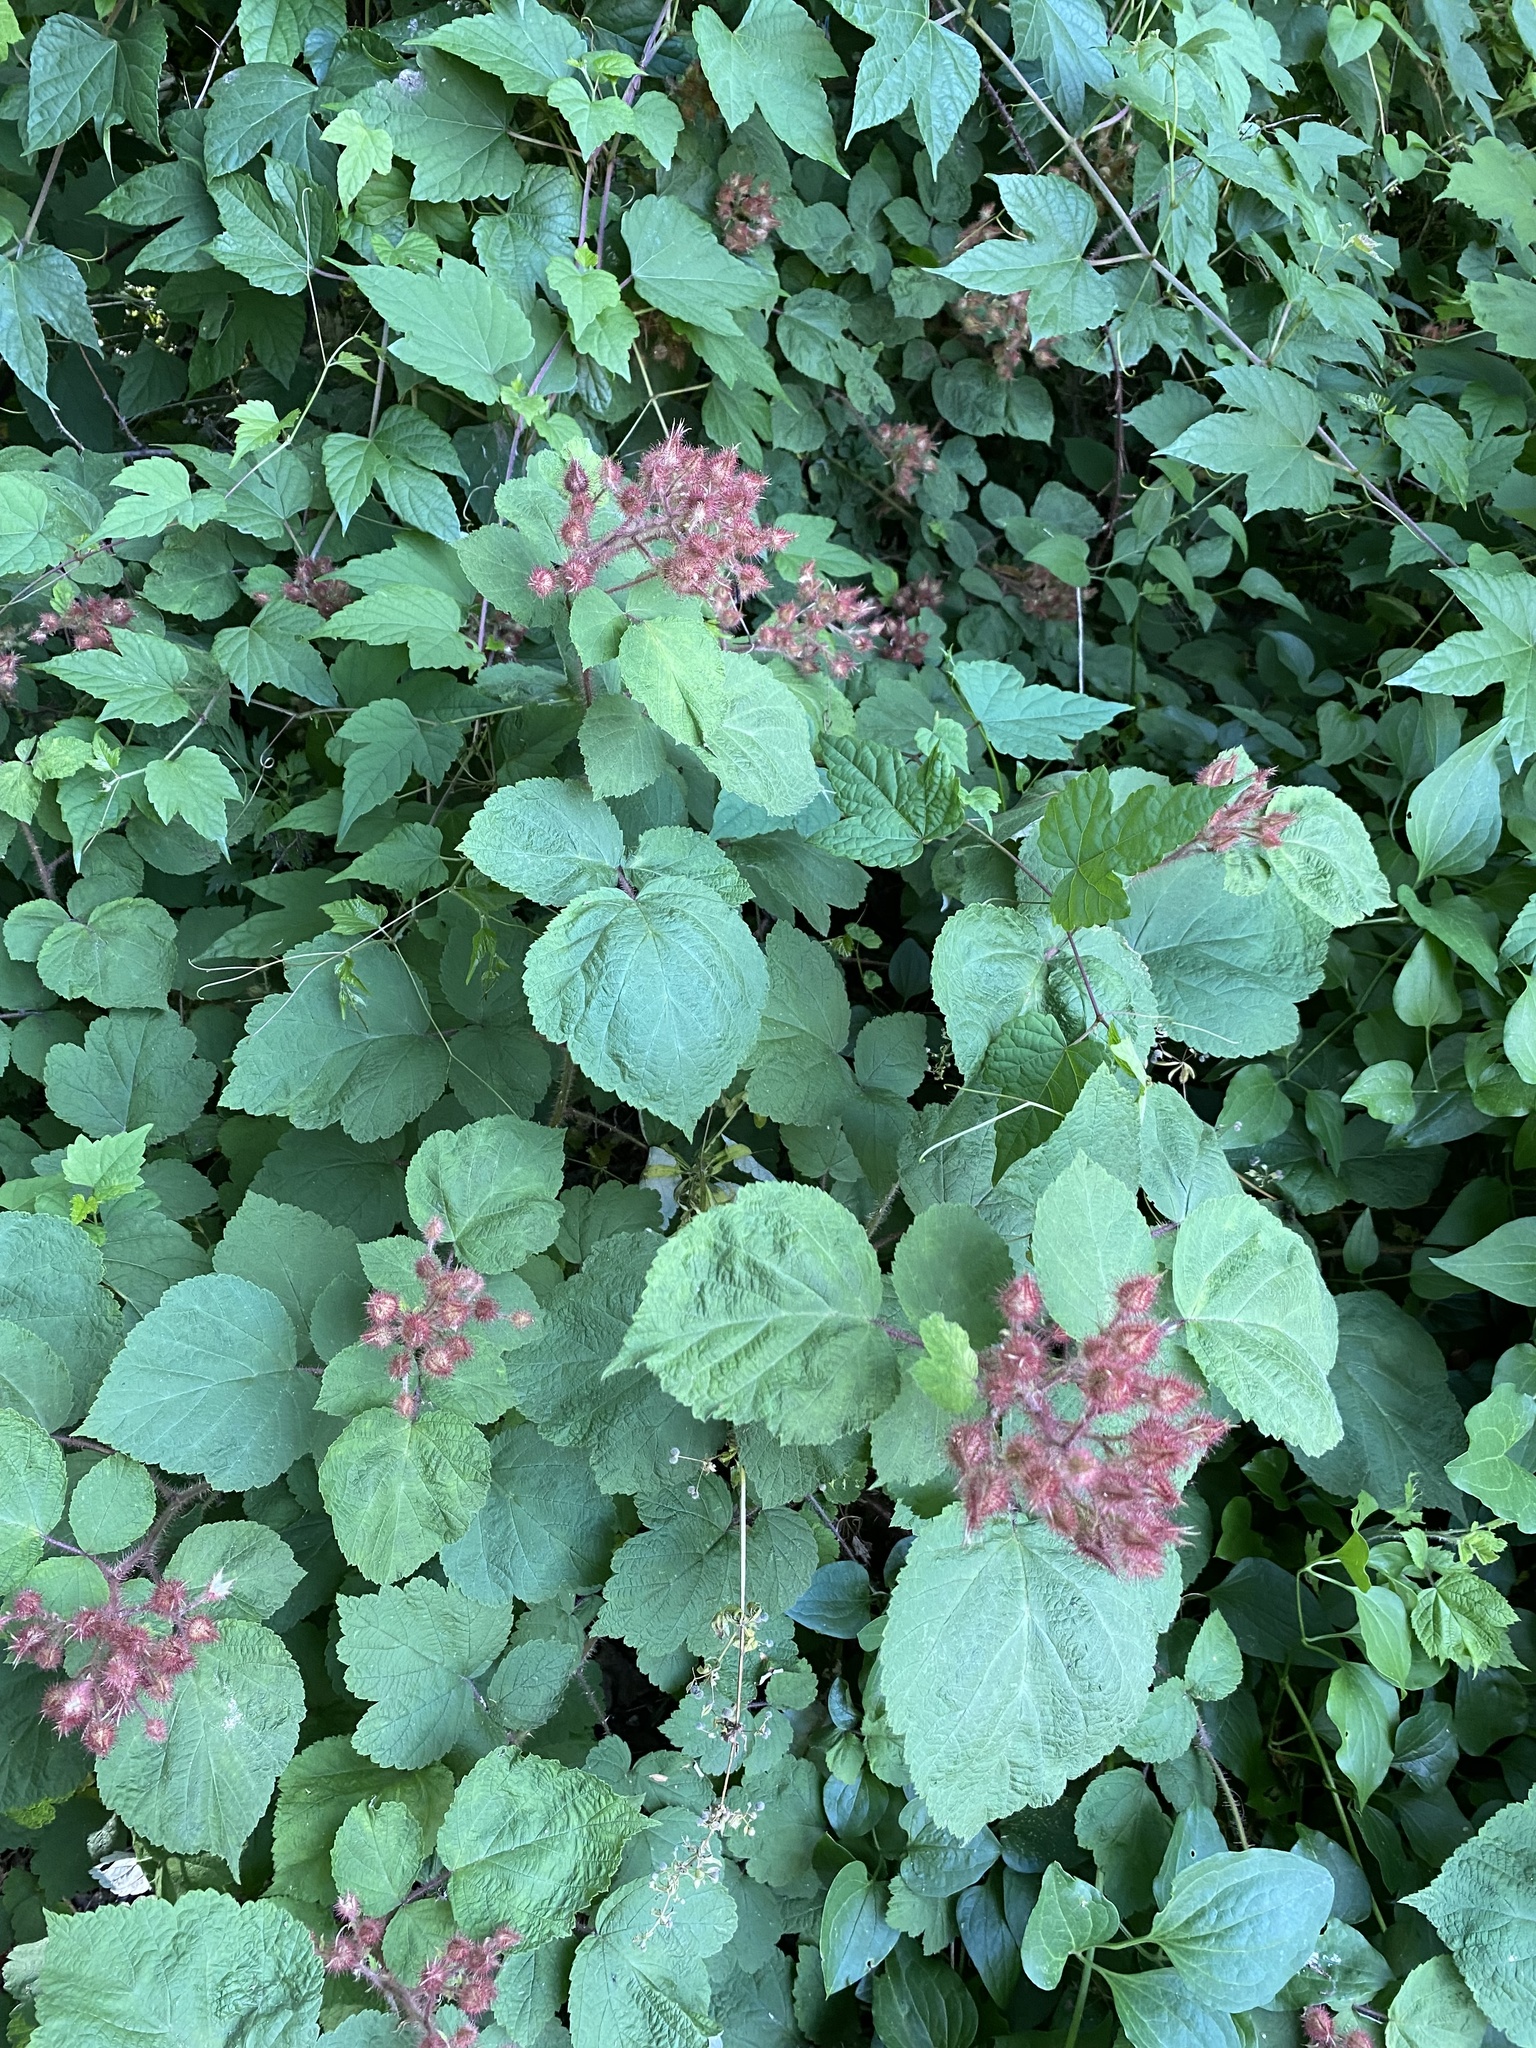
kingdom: Plantae
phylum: Tracheophyta
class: Magnoliopsida
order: Rosales
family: Rosaceae
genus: Rubus
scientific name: Rubus phoenicolasius
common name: Japanese wineberry
